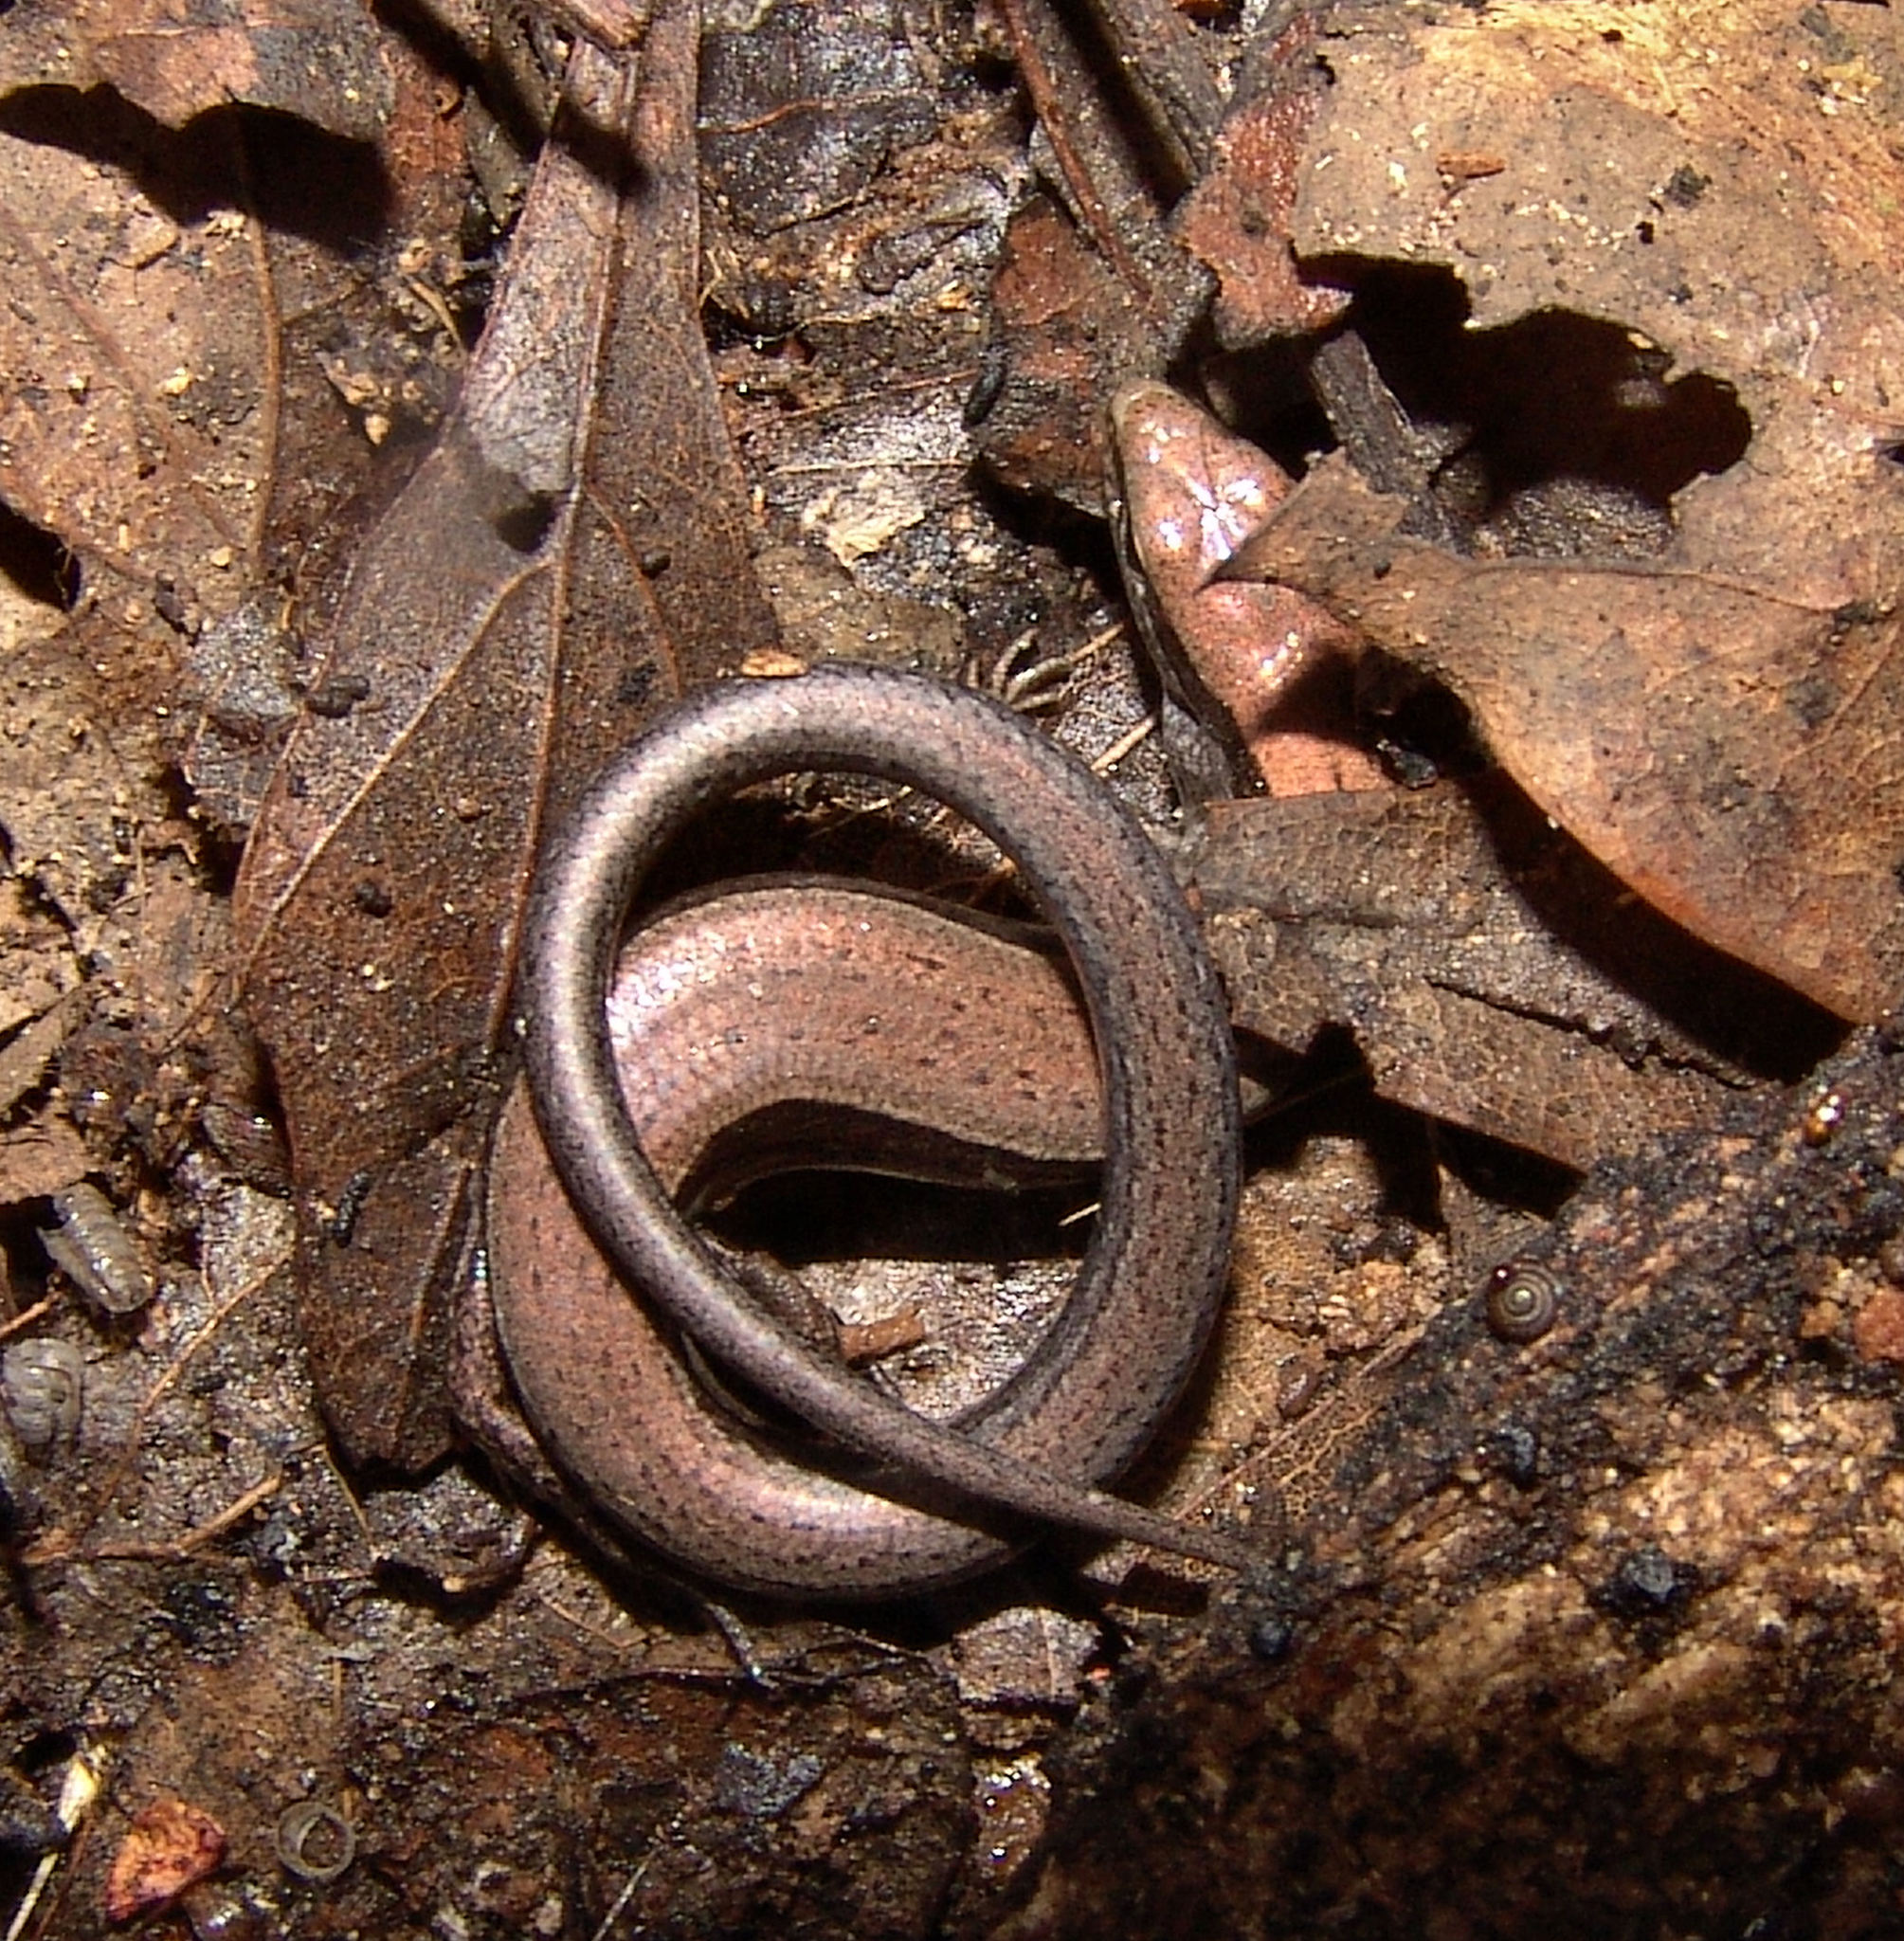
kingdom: Animalia
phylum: Chordata
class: Squamata
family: Scincidae
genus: Scincella
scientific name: Scincella lateralis
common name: Ground skink
